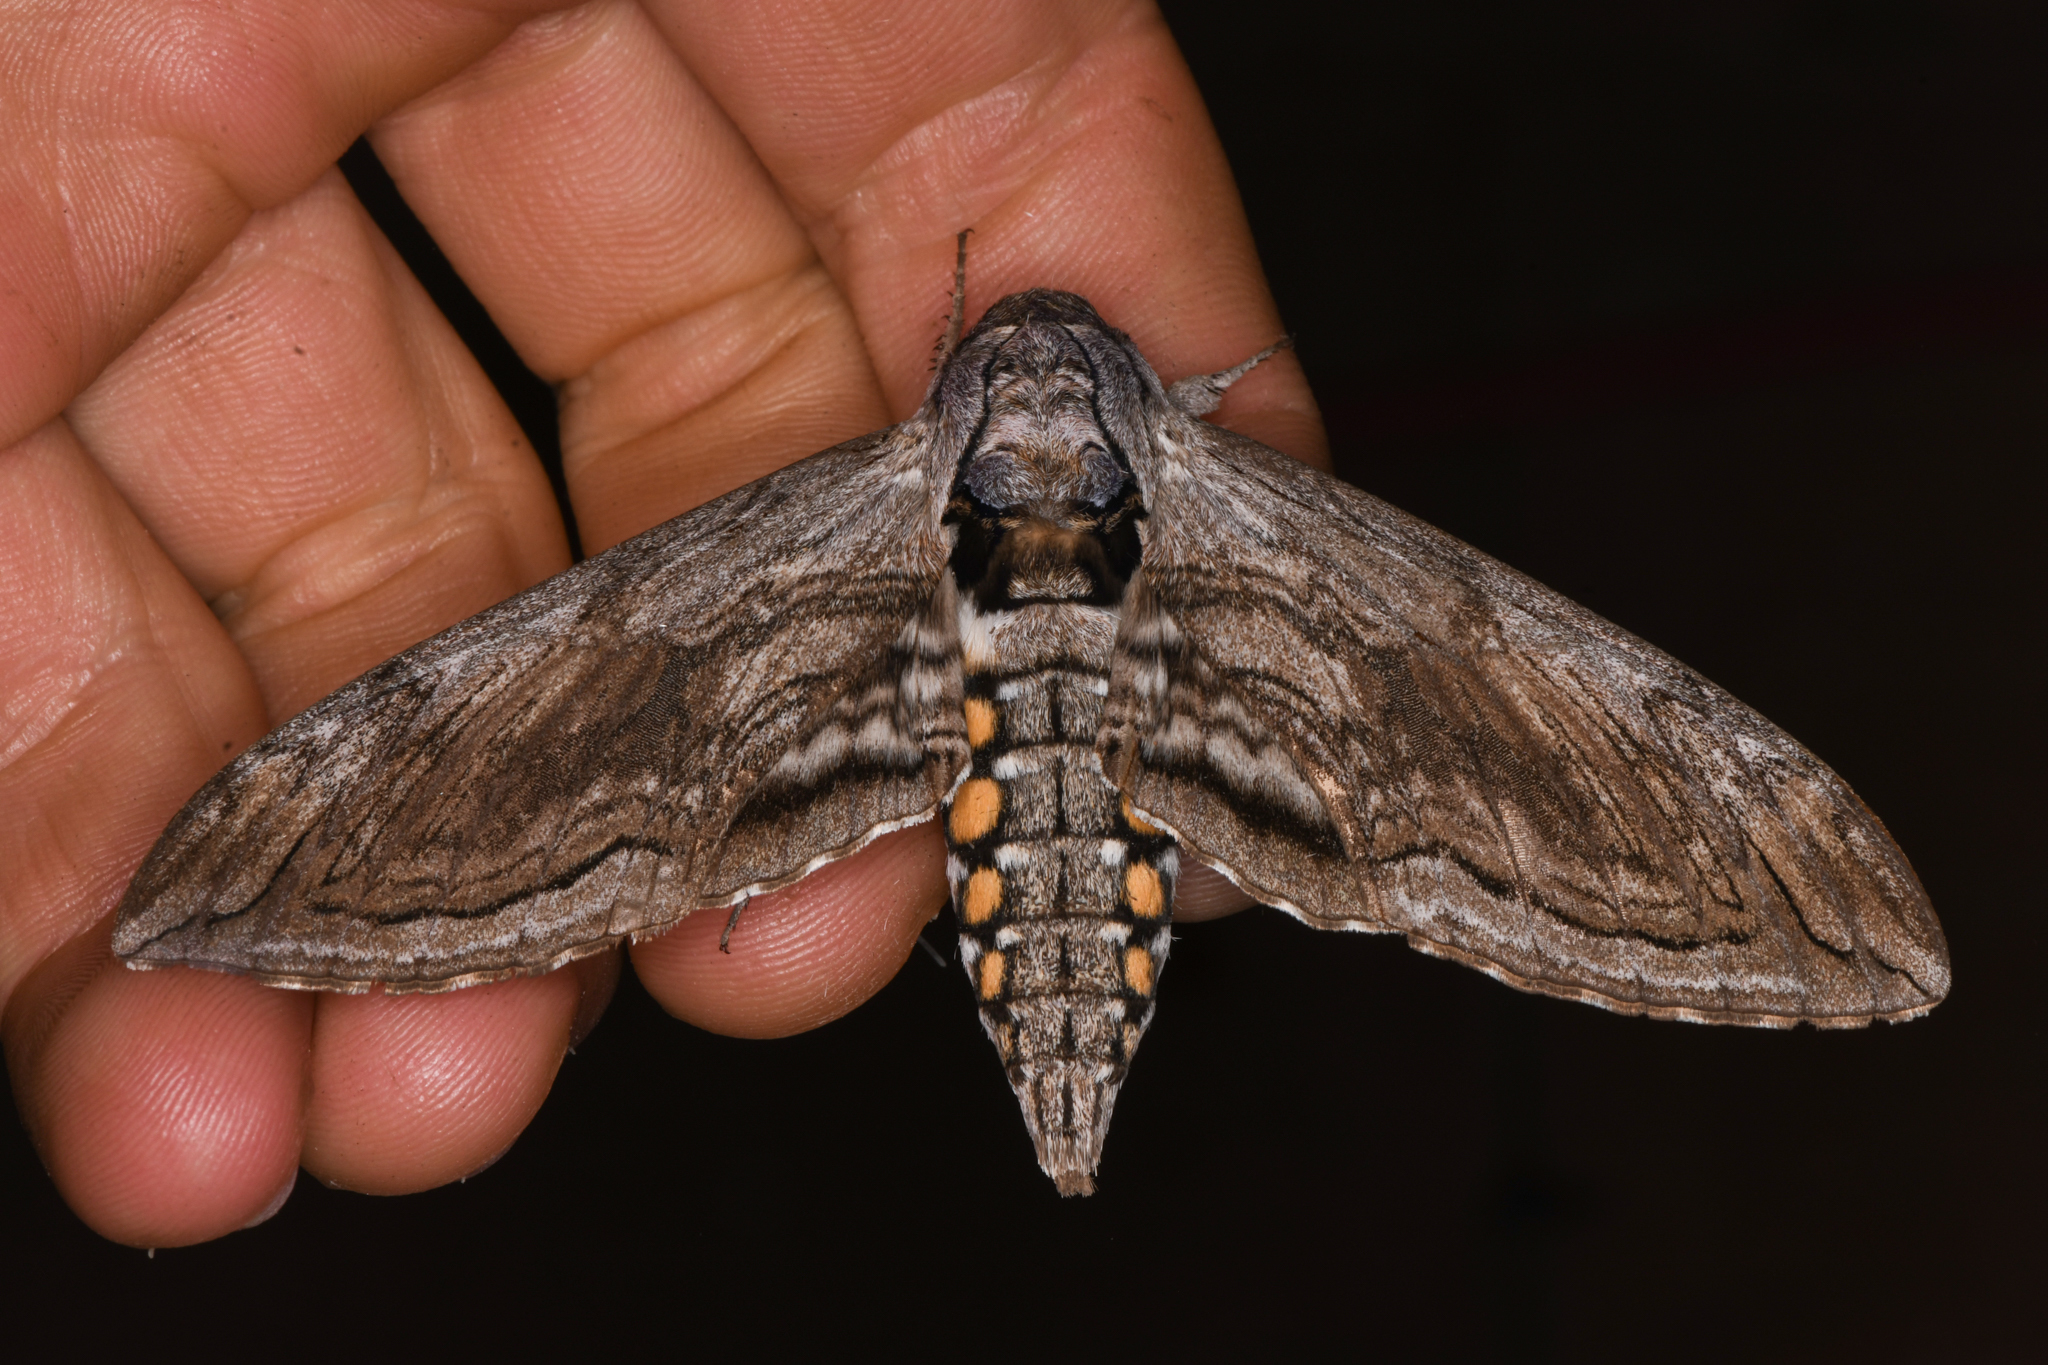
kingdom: Animalia
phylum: Arthropoda
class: Insecta
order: Lepidoptera
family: Sphingidae
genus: Manduca
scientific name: Manduca quinquemaculatus
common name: Five-spotted hawk-moth
